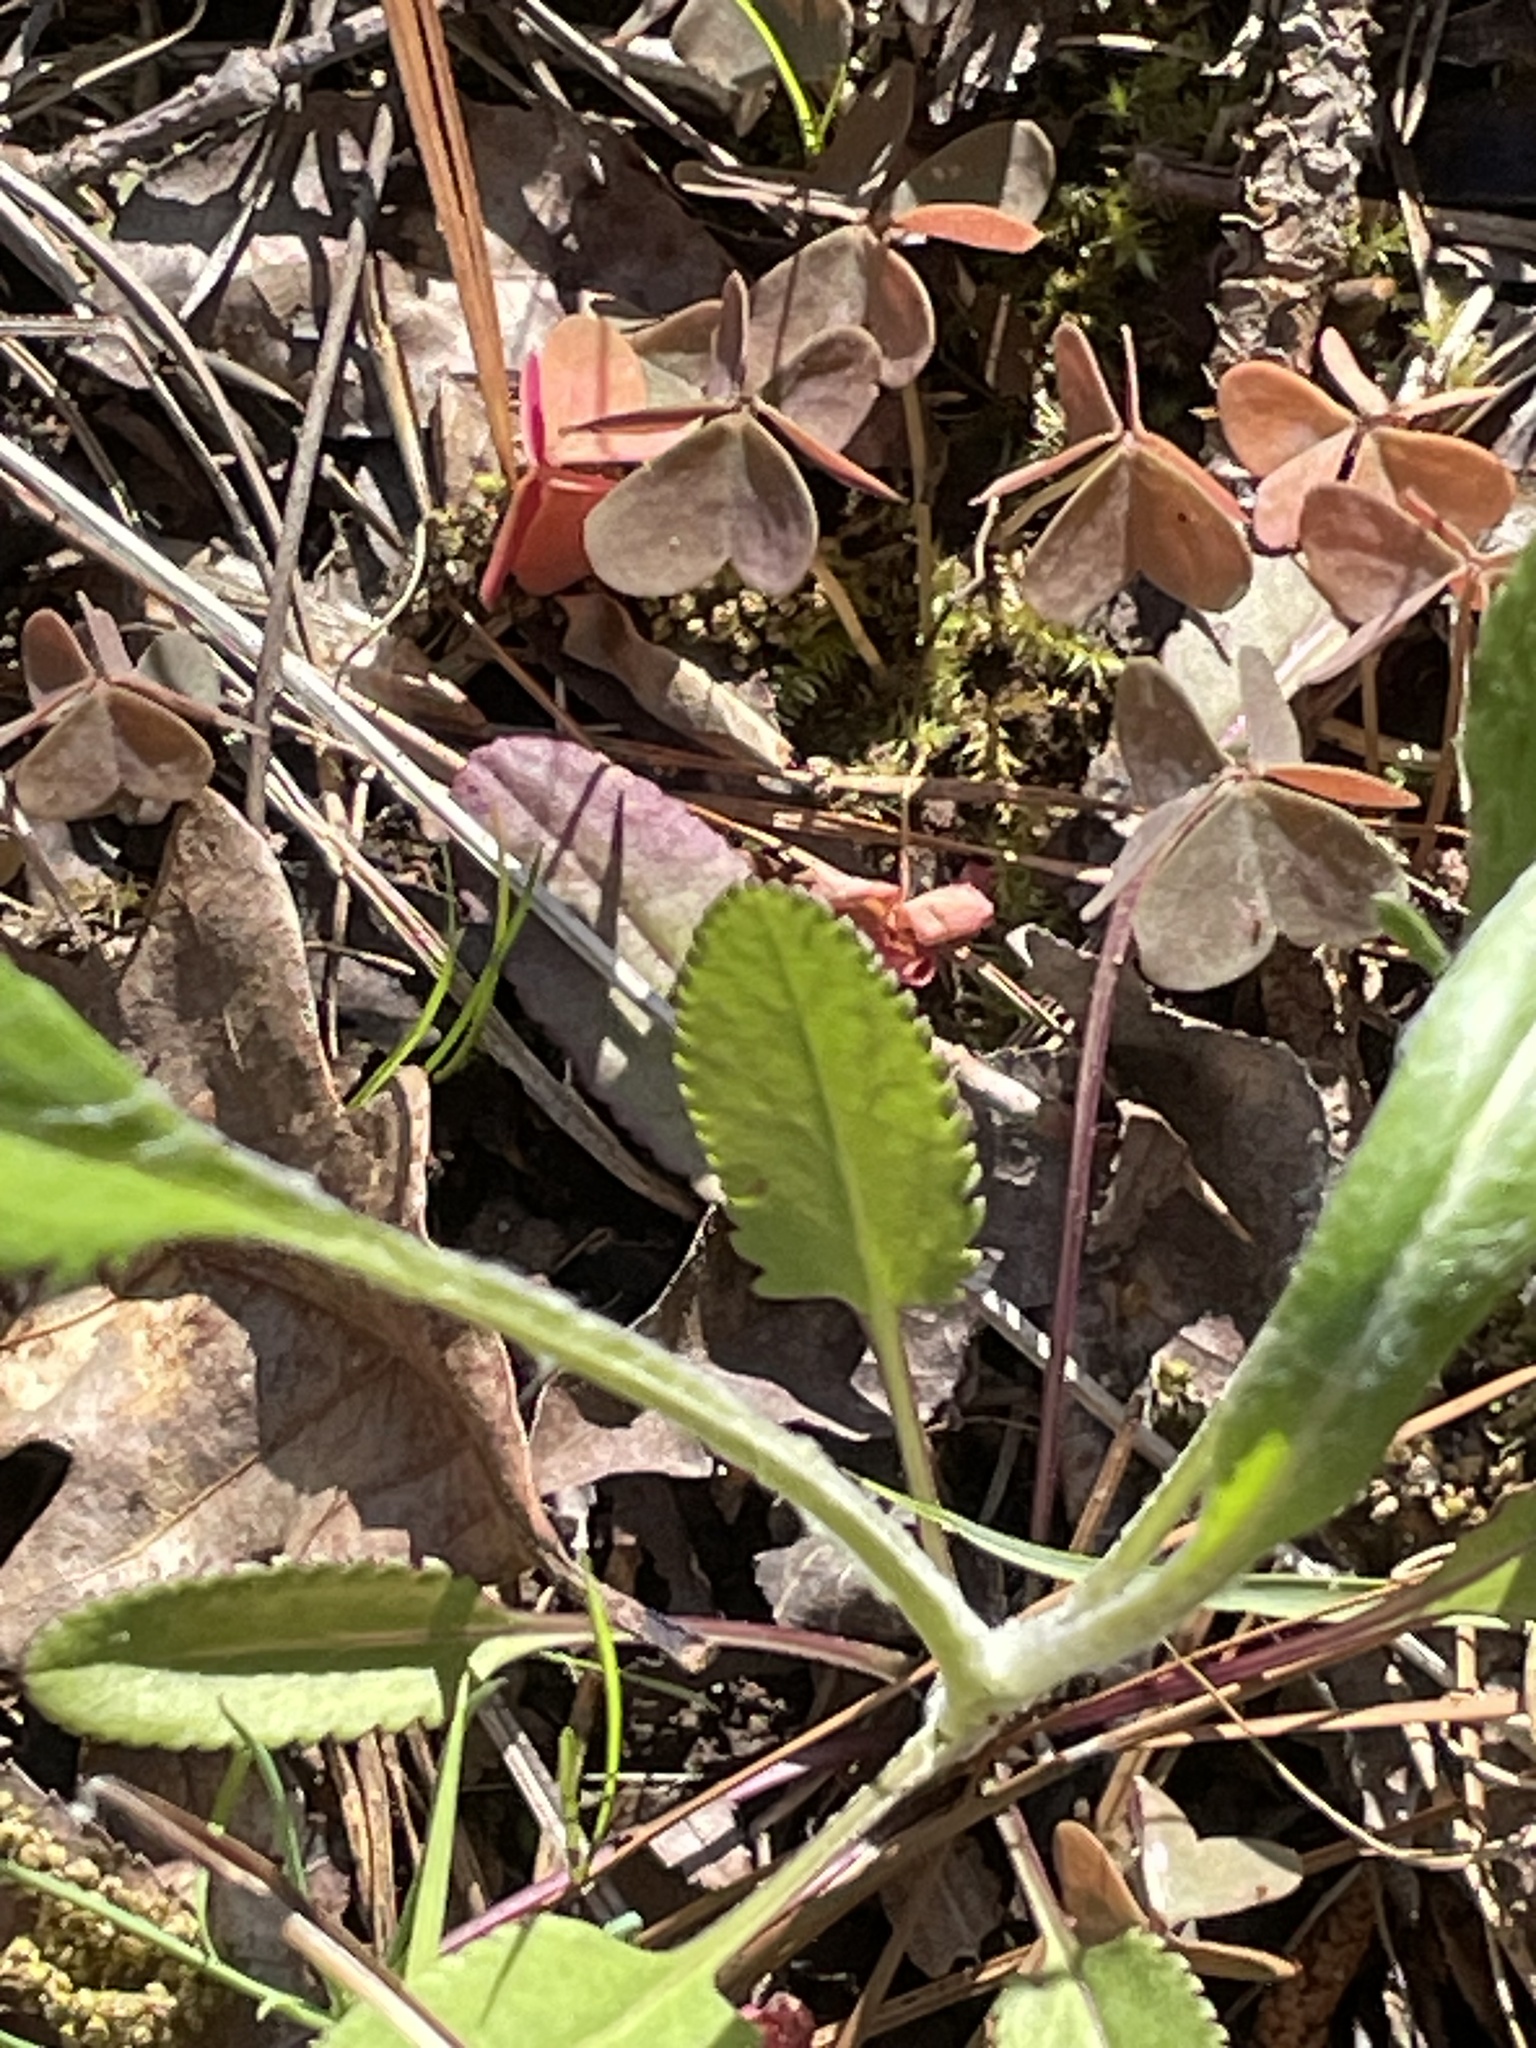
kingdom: Plantae
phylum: Tracheophyta
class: Magnoliopsida
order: Asterales
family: Asteraceae
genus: Packera
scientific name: Packera anonyma
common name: Small ragwort
